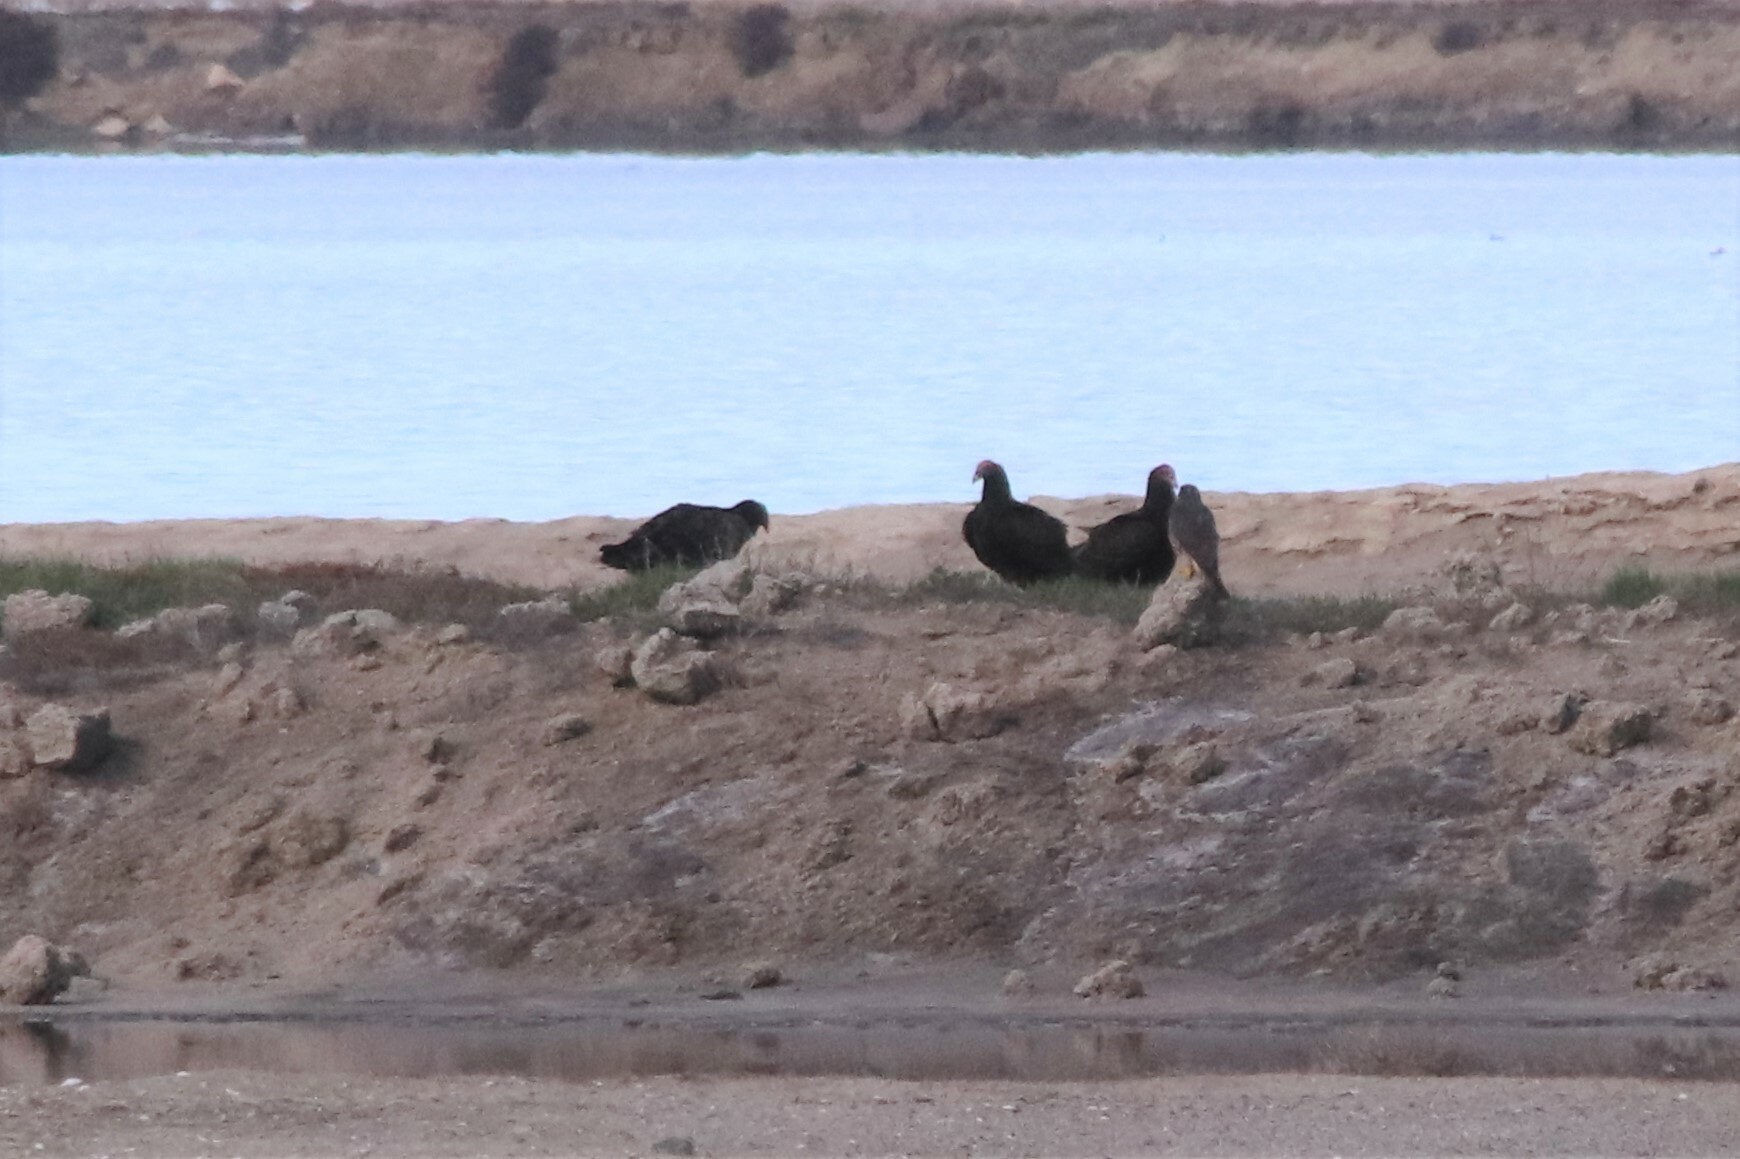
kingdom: Animalia
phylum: Chordata
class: Aves
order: Accipitriformes
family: Cathartidae
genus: Cathartes
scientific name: Cathartes aura
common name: Turkey vulture
